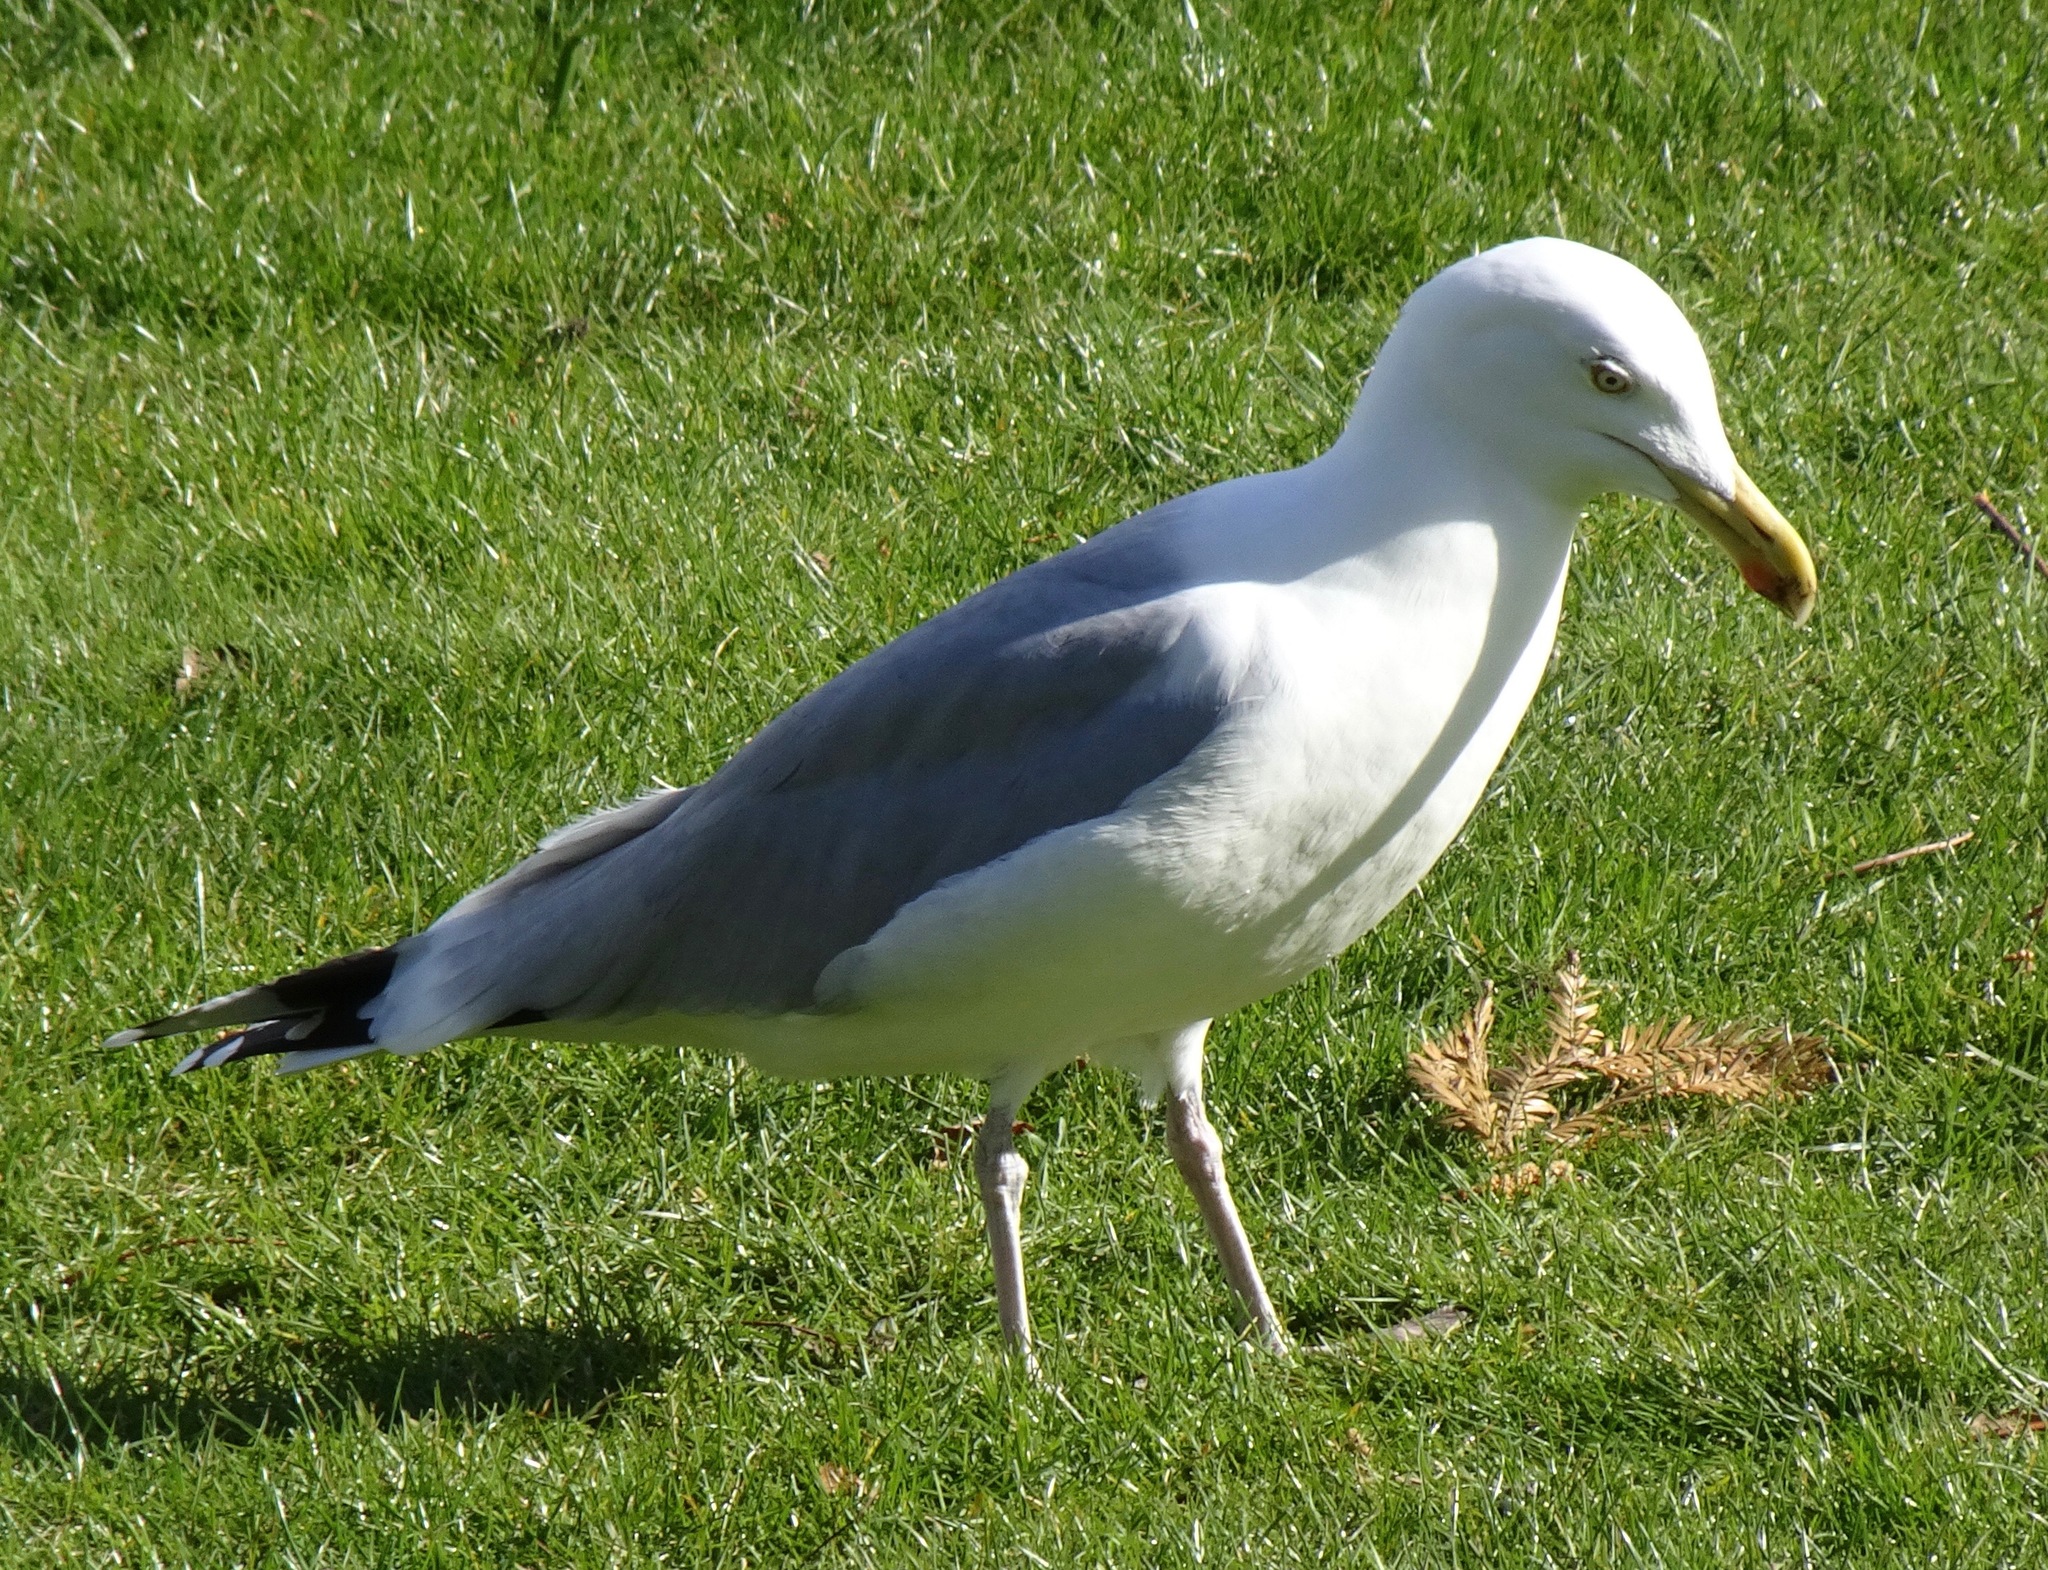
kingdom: Animalia
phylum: Chordata
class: Aves
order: Charadriiformes
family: Laridae
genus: Larus
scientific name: Larus argentatus
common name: Herring gull
